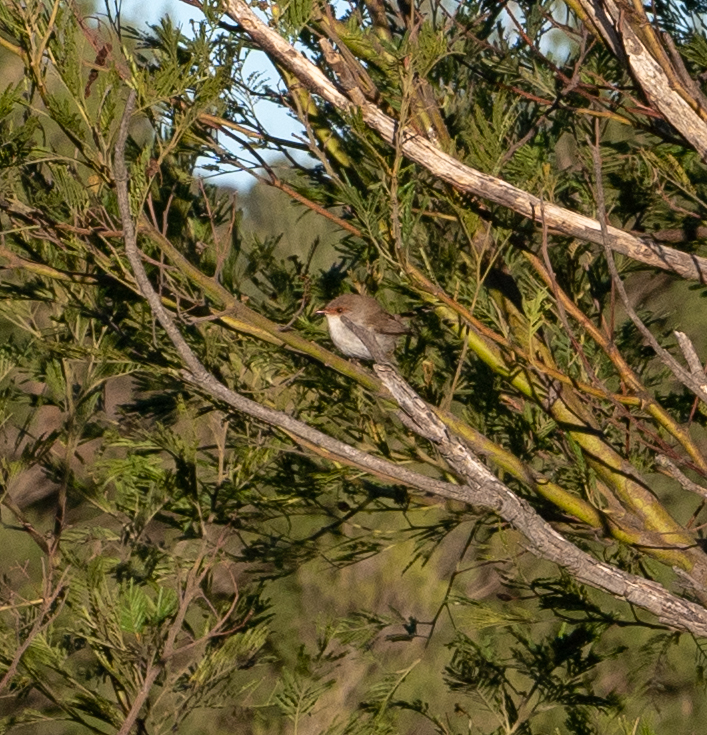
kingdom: Animalia
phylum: Chordata
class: Aves
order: Passeriformes
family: Maluridae
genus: Malurus
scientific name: Malurus cyaneus
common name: Superb fairywren
